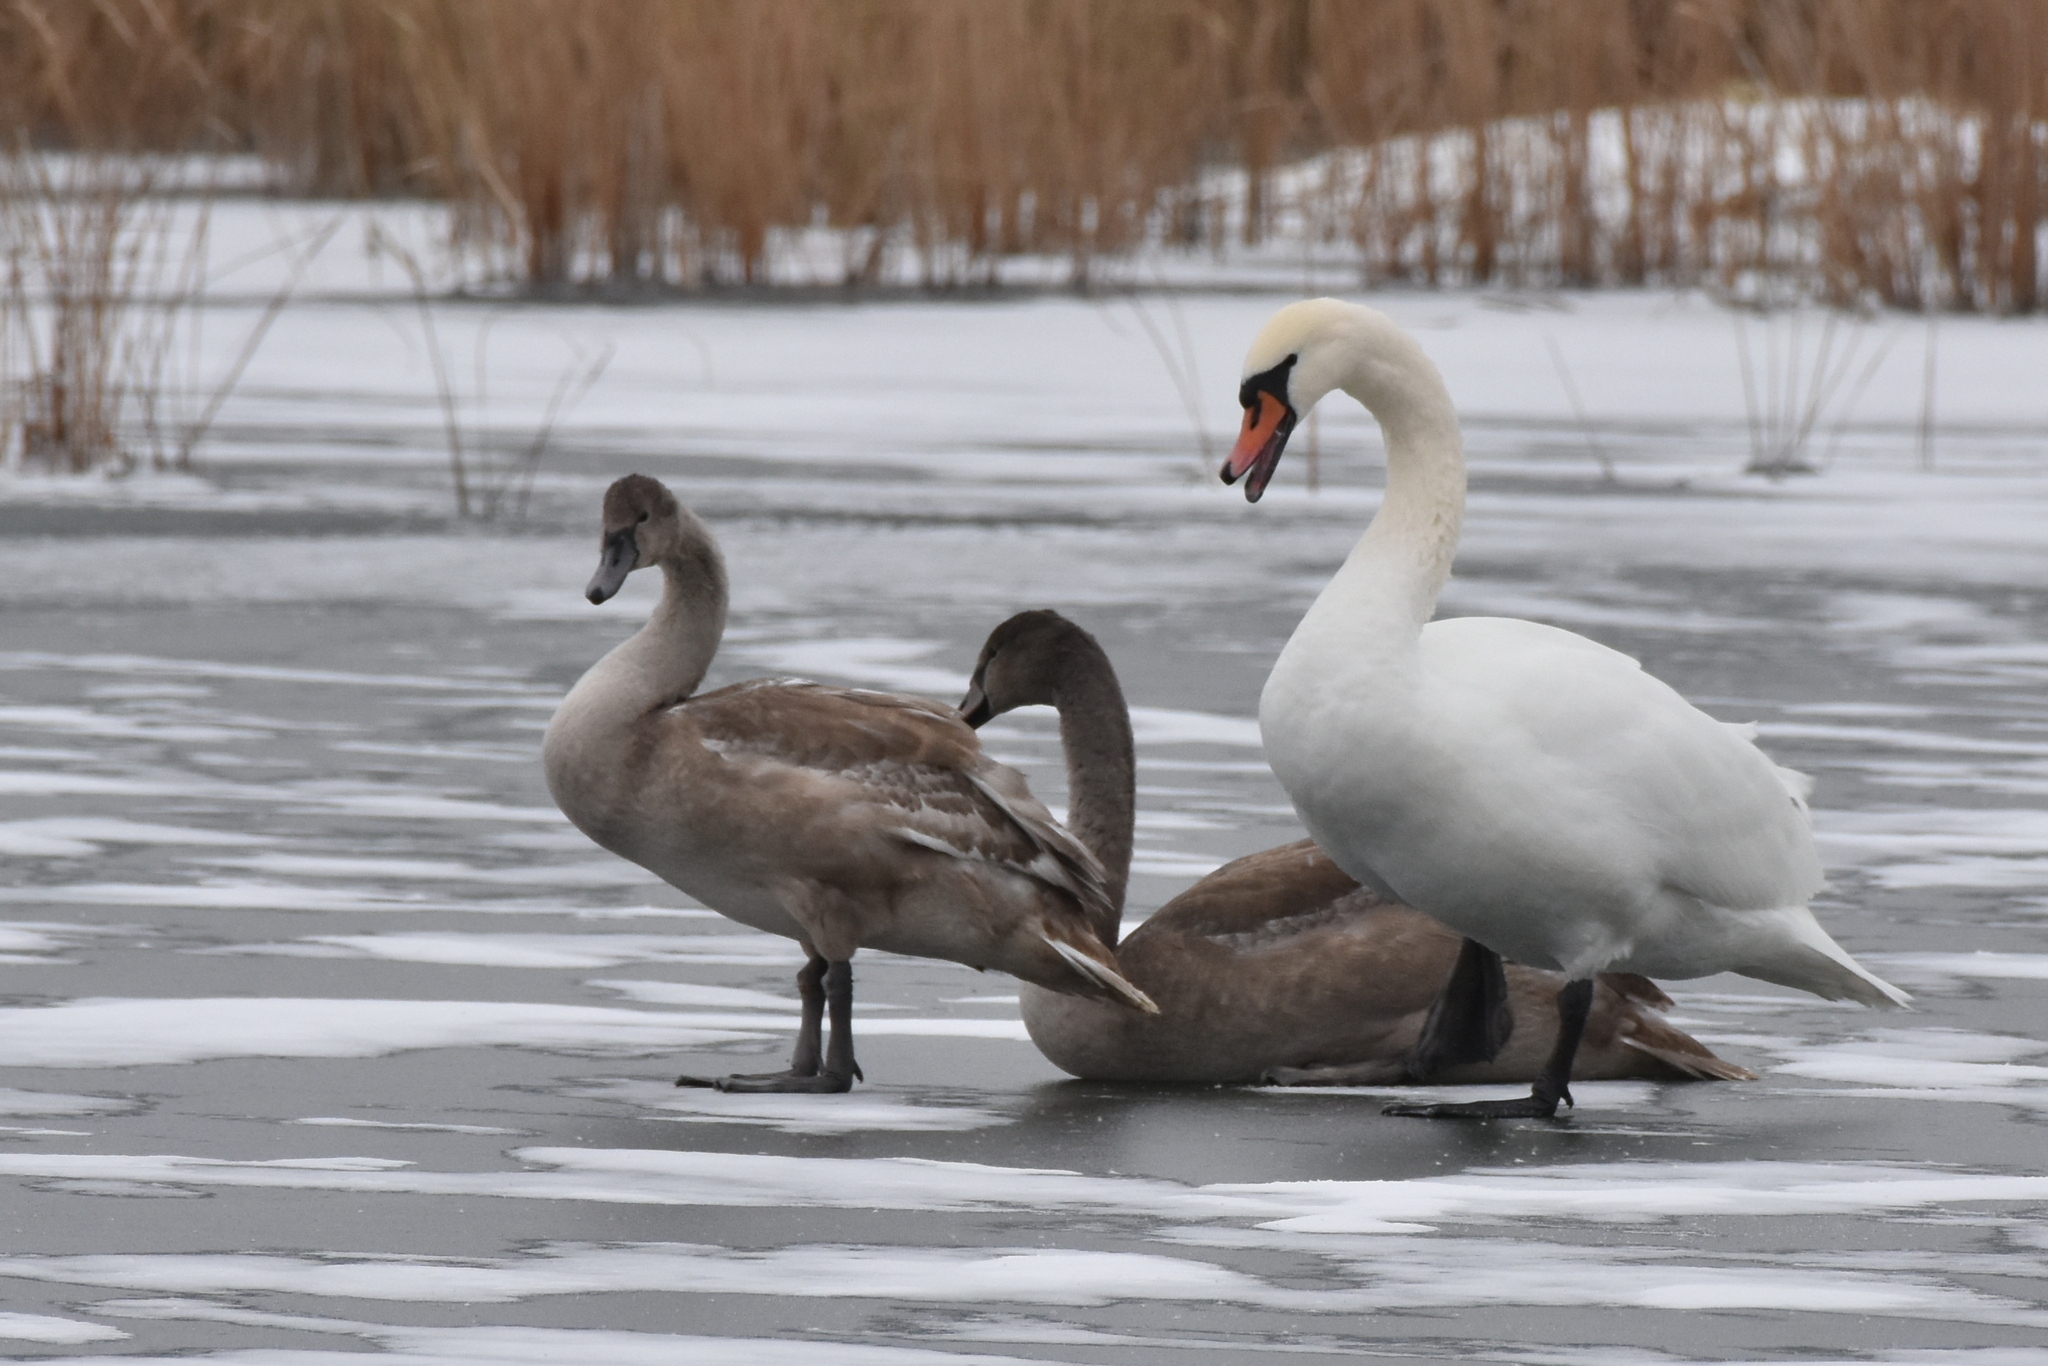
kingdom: Animalia
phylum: Chordata
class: Aves
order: Anseriformes
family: Anatidae
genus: Cygnus
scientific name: Cygnus olor
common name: Mute swan
